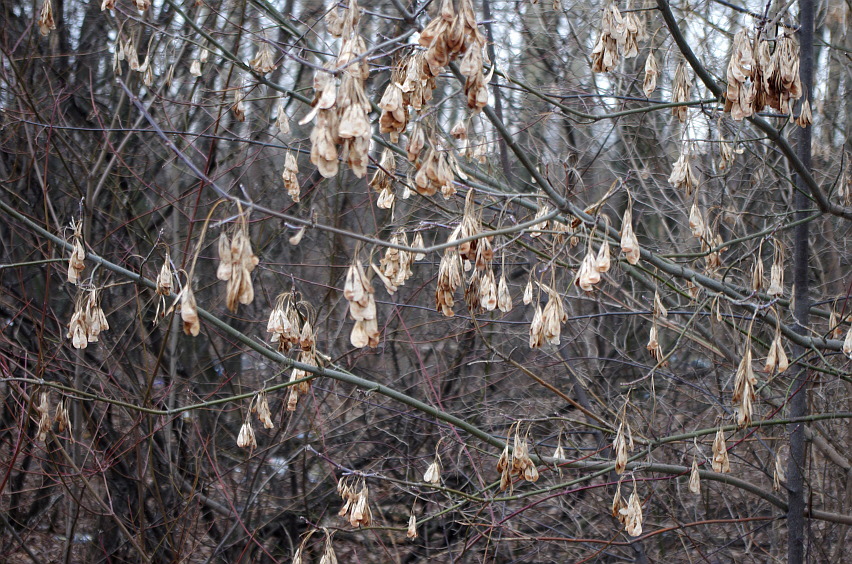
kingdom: Plantae
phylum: Tracheophyta
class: Magnoliopsida
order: Sapindales
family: Sapindaceae
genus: Acer
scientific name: Acer negundo
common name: Ashleaf maple
